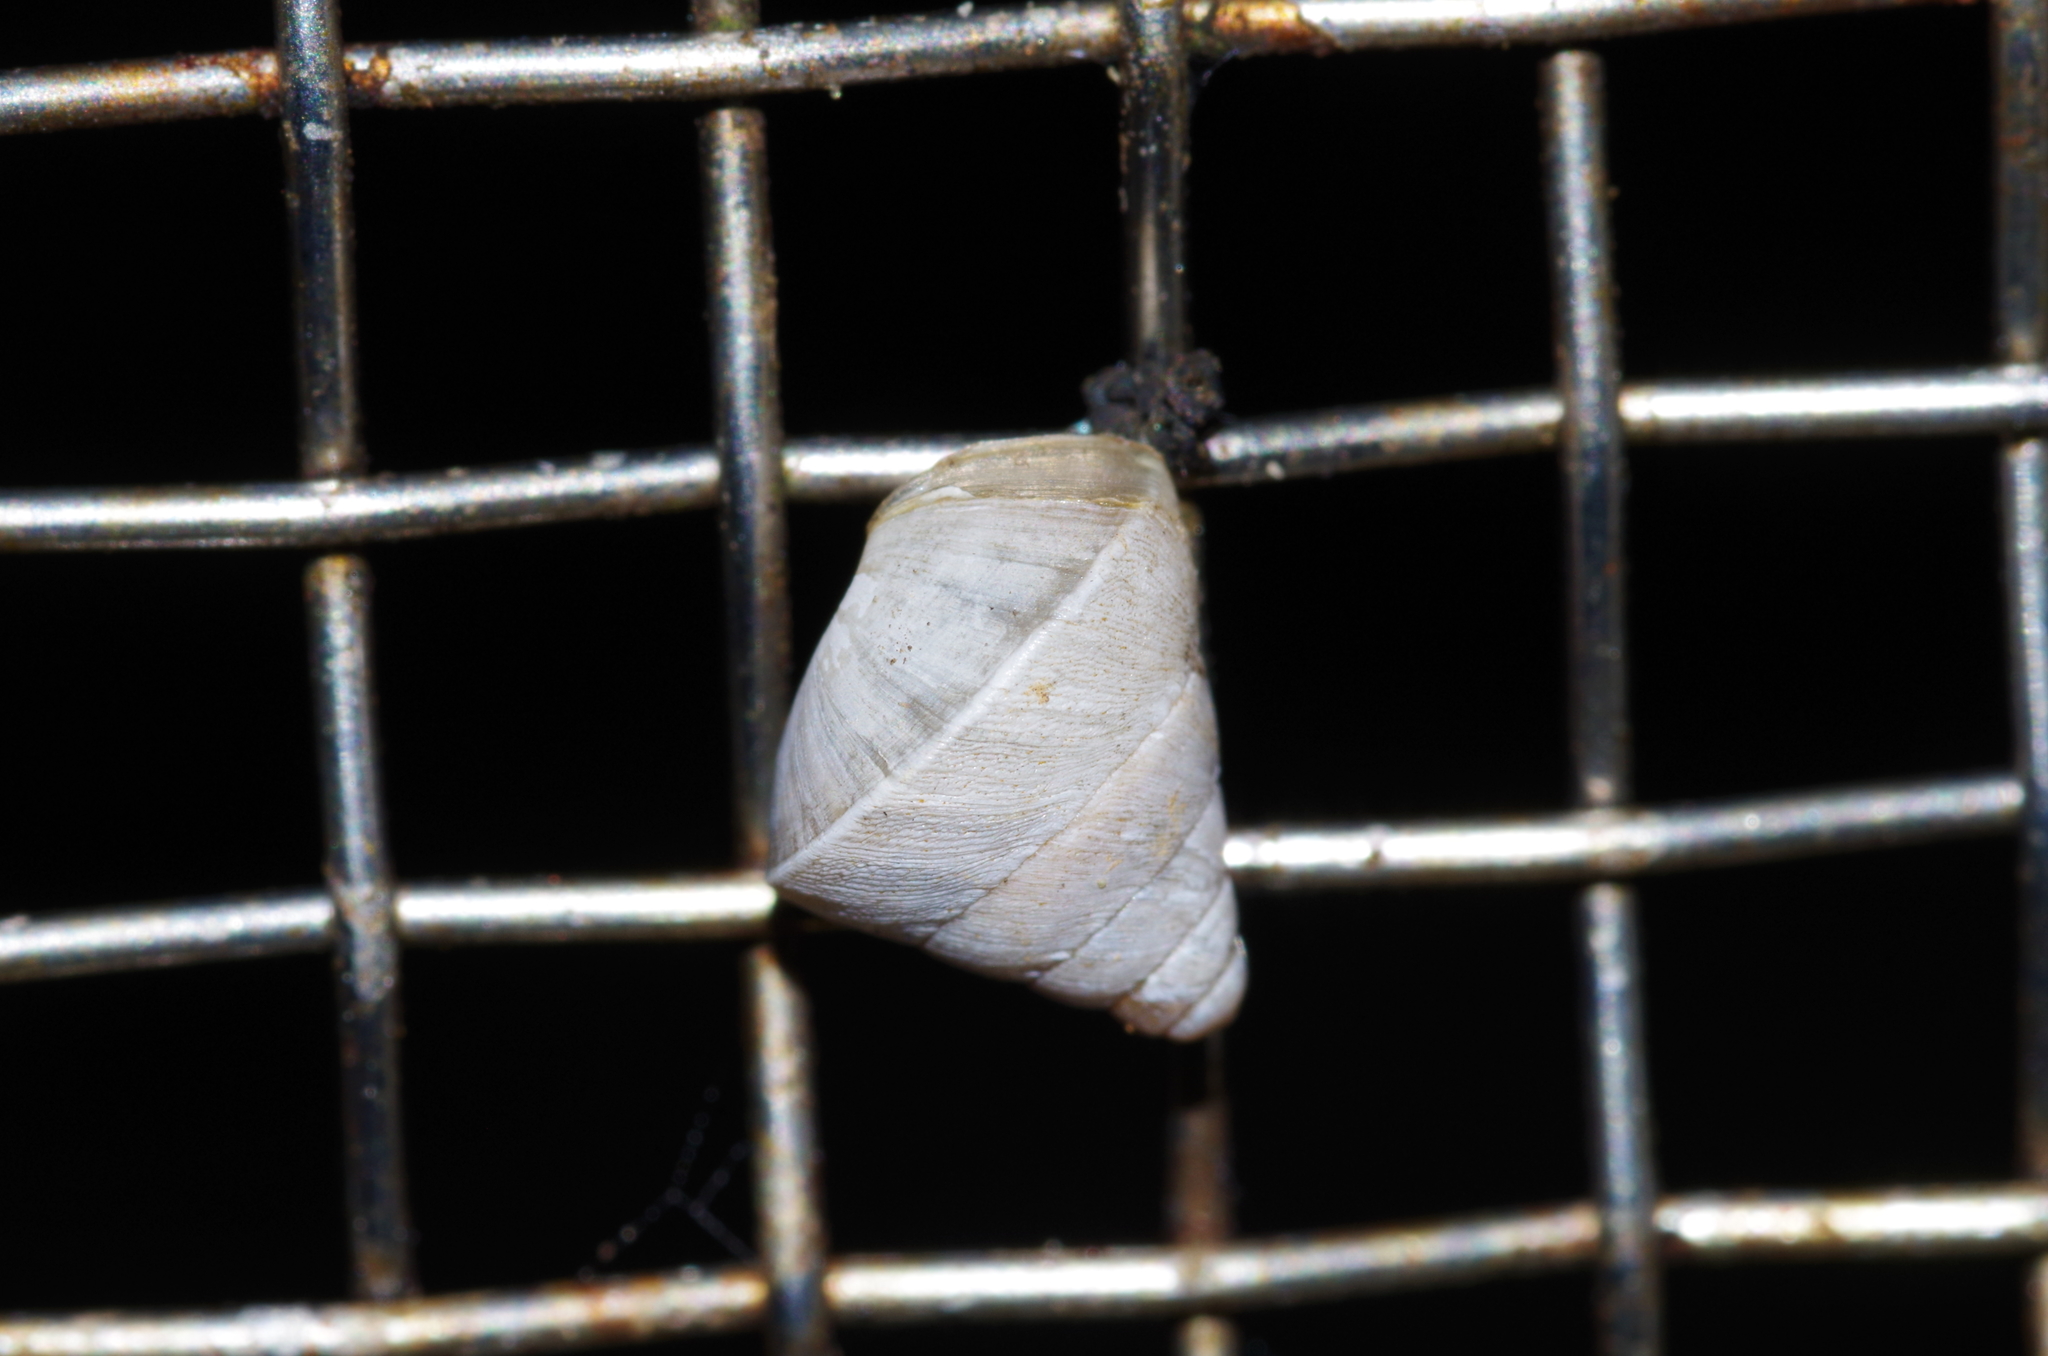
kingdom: Animalia
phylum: Mollusca
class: Gastropoda
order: Stylommatophora
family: Enidae
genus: Luchuena
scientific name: Luchuena reticulata
